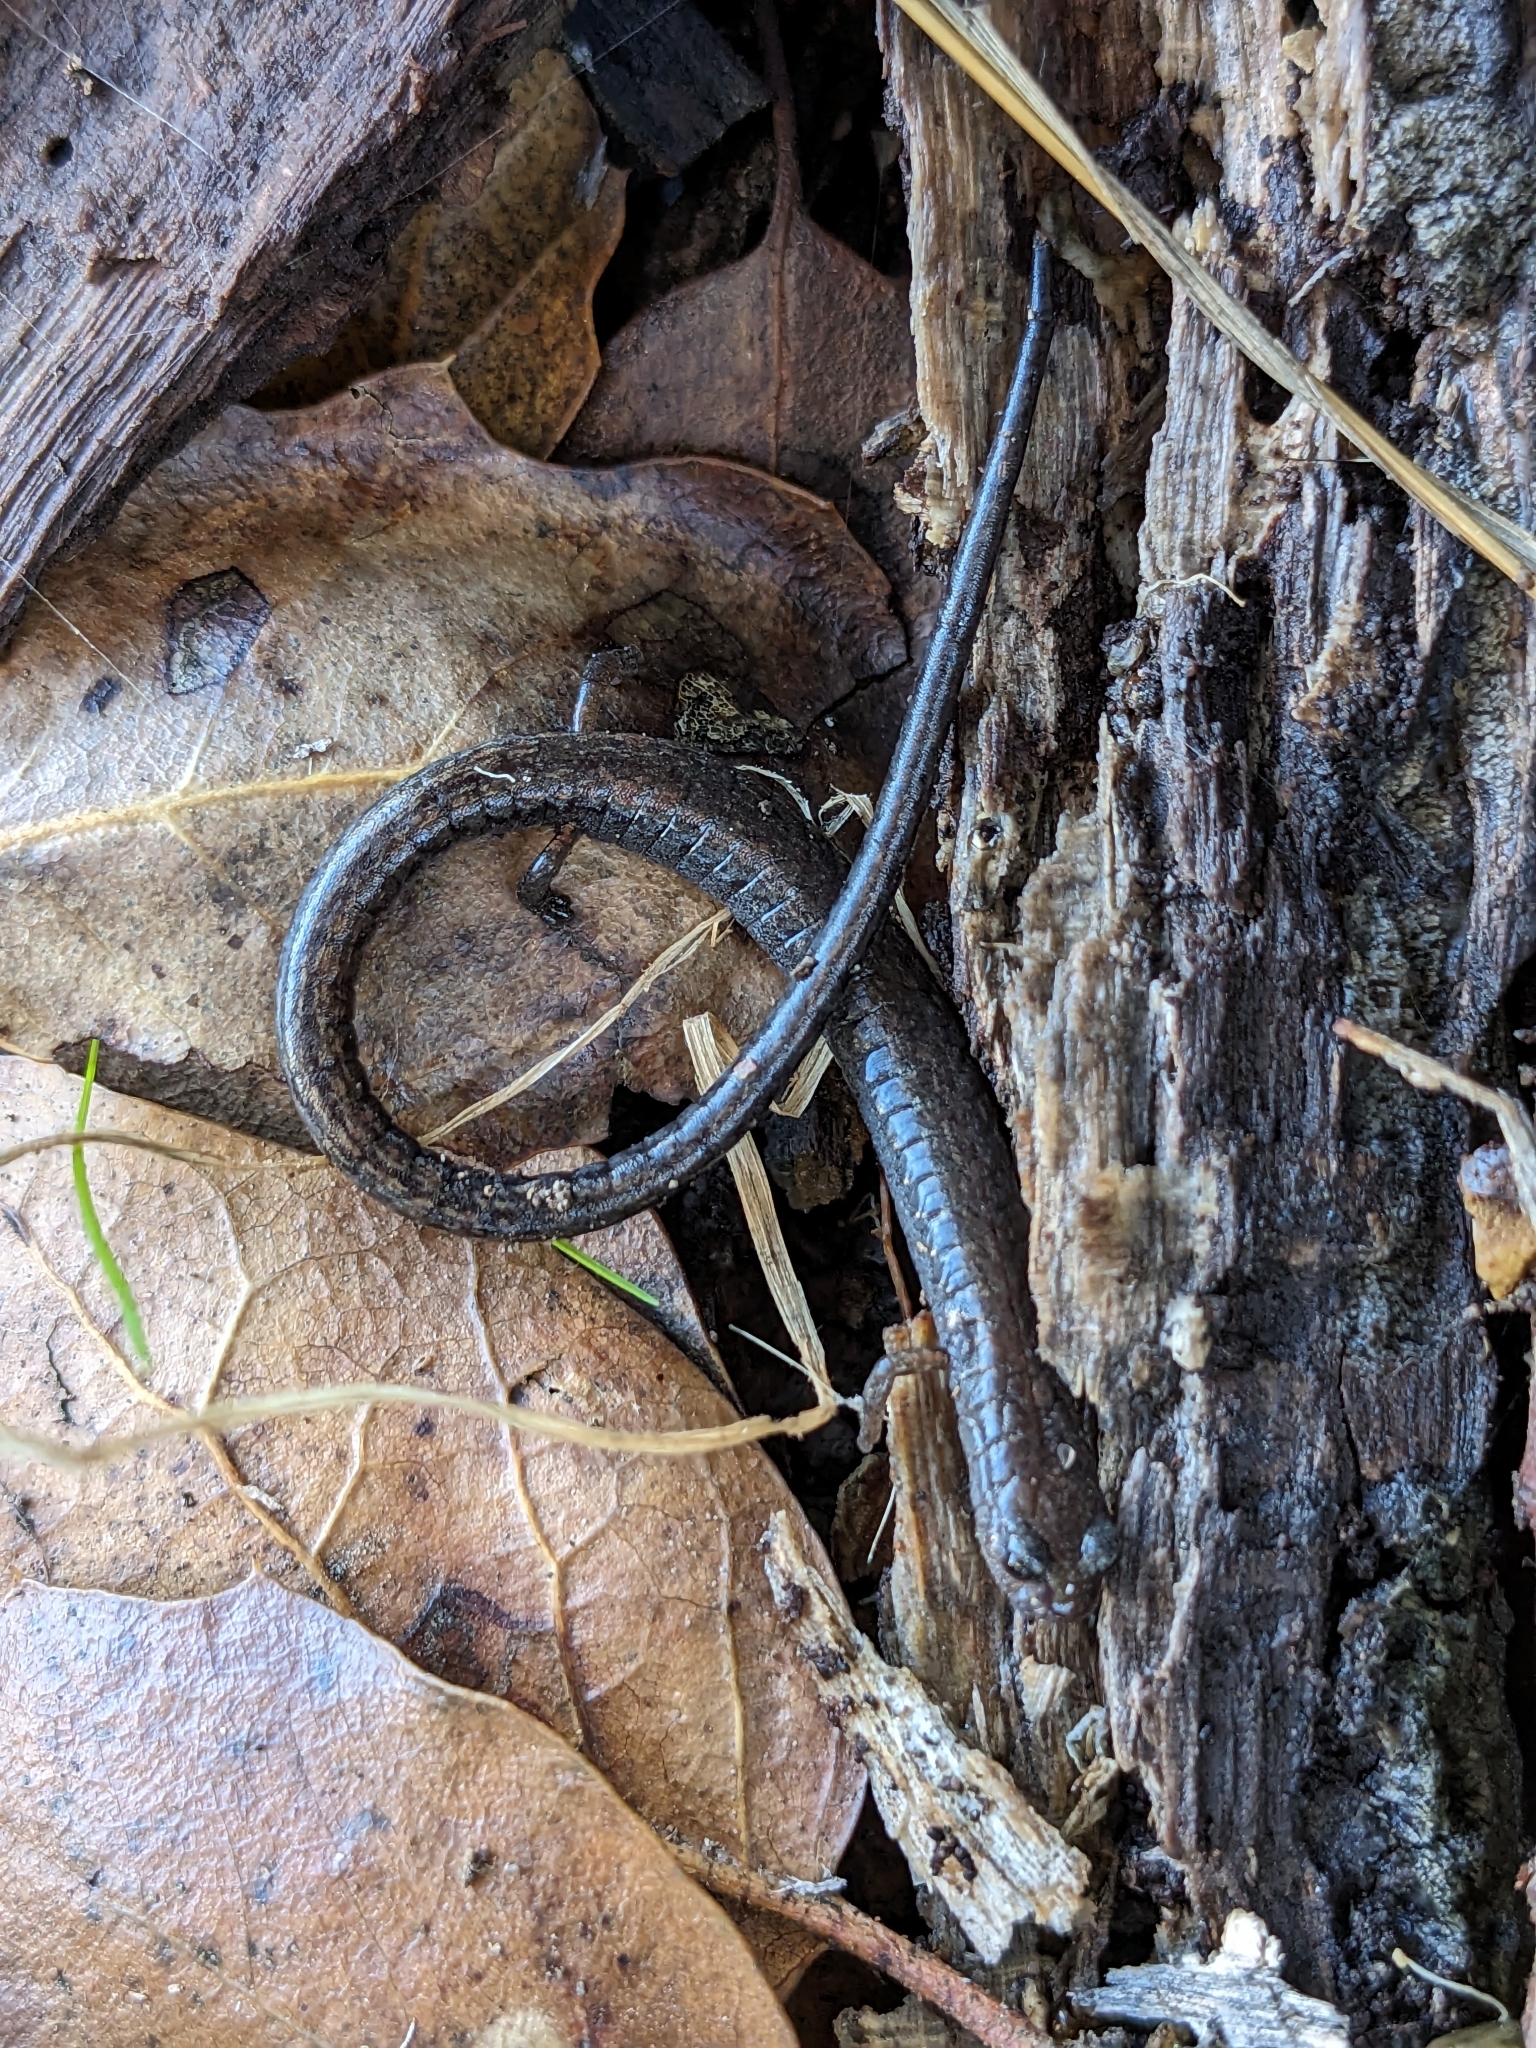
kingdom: Animalia
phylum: Chordata
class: Amphibia
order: Caudata
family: Plethodontidae
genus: Batrachoseps
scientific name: Batrachoseps attenuatus
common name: California slender salamander
